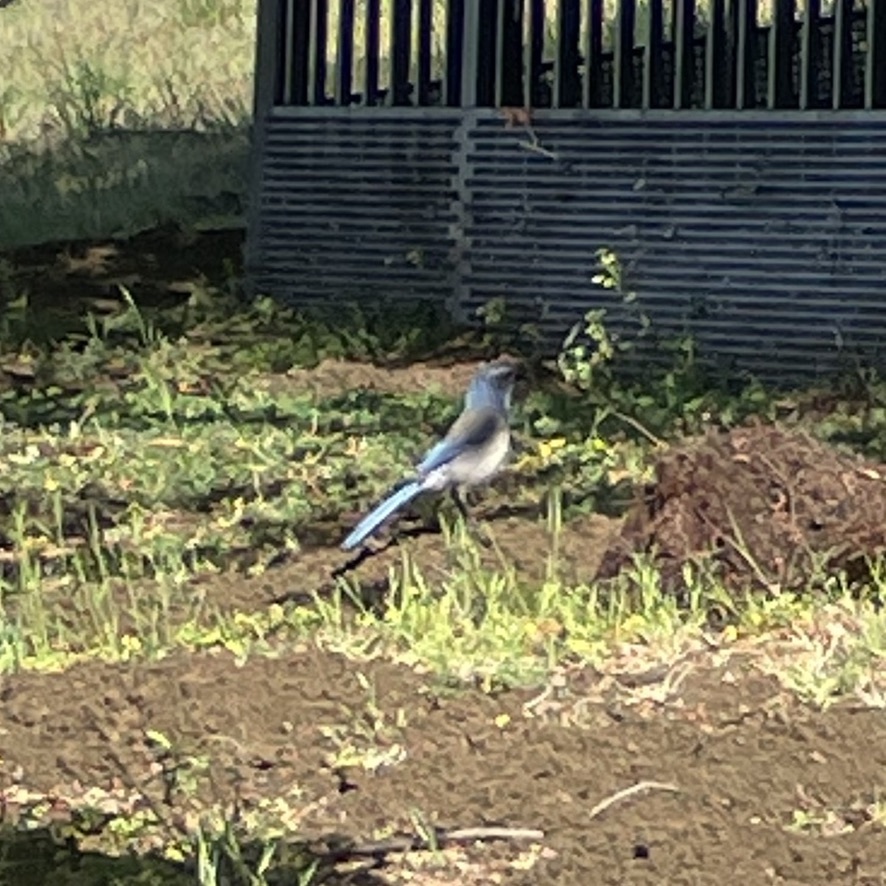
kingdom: Animalia
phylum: Chordata
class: Aves
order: Passeriformes
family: Corvidae
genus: Aphelocoma
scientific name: Aphelocoma californica
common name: California scrub-jay
